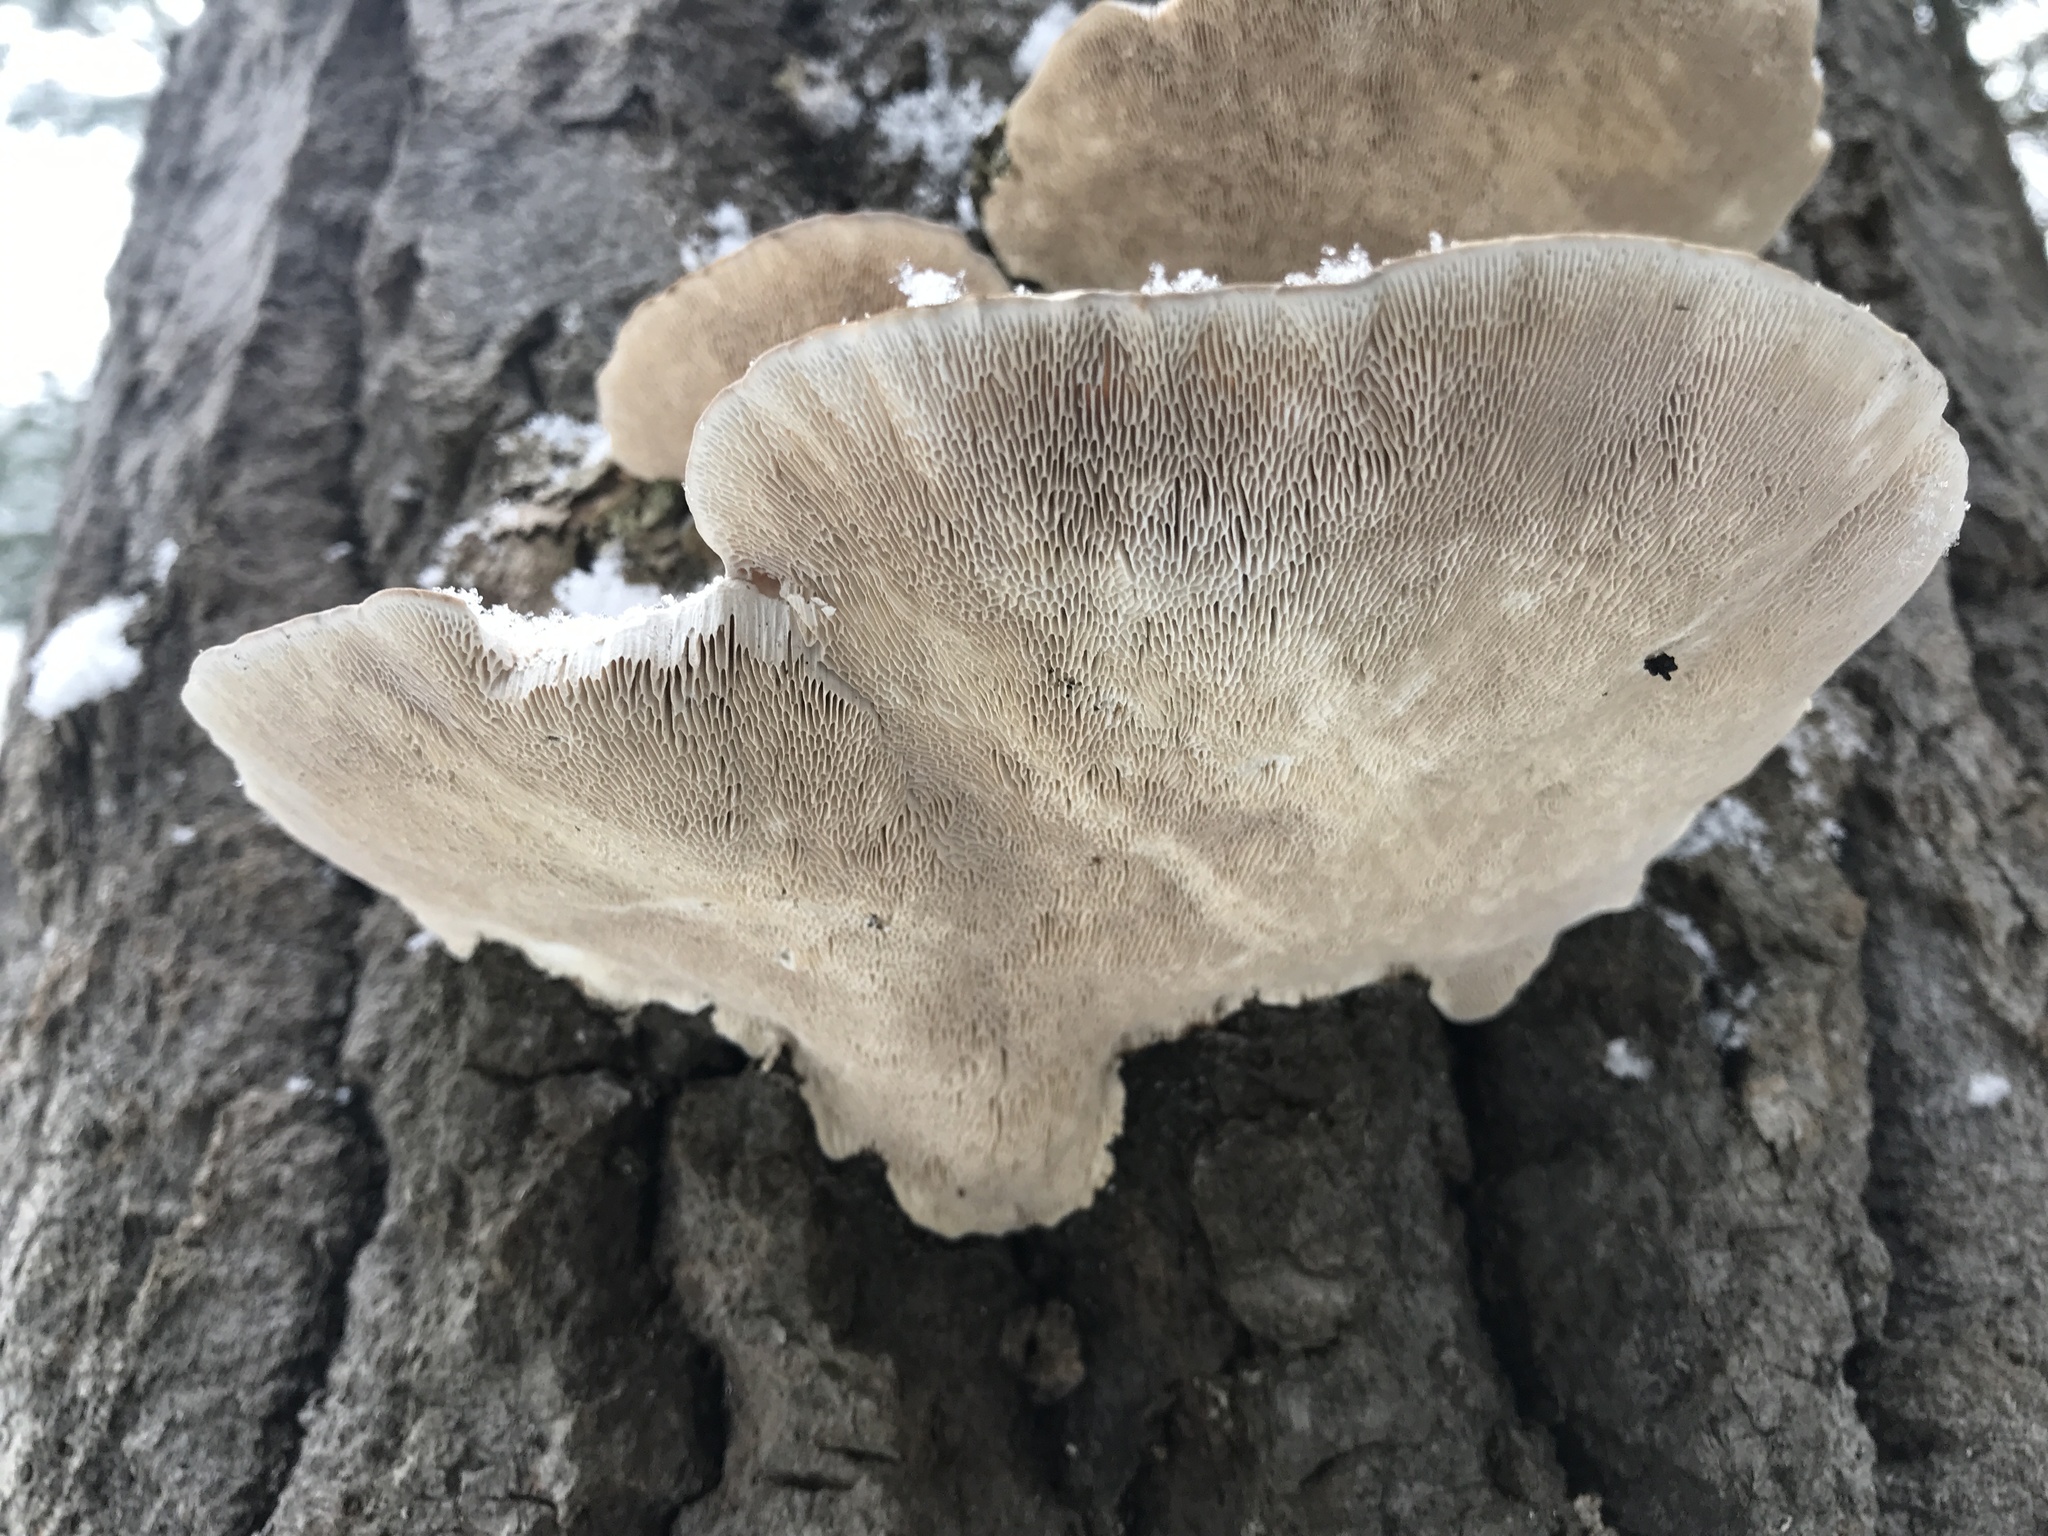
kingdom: Fungi
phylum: Basidiomycota
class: Agaricomycetes
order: Polyporales
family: Polyporaceae
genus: Trametes
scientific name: Trametes gibbosa
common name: Lumpy bracket
